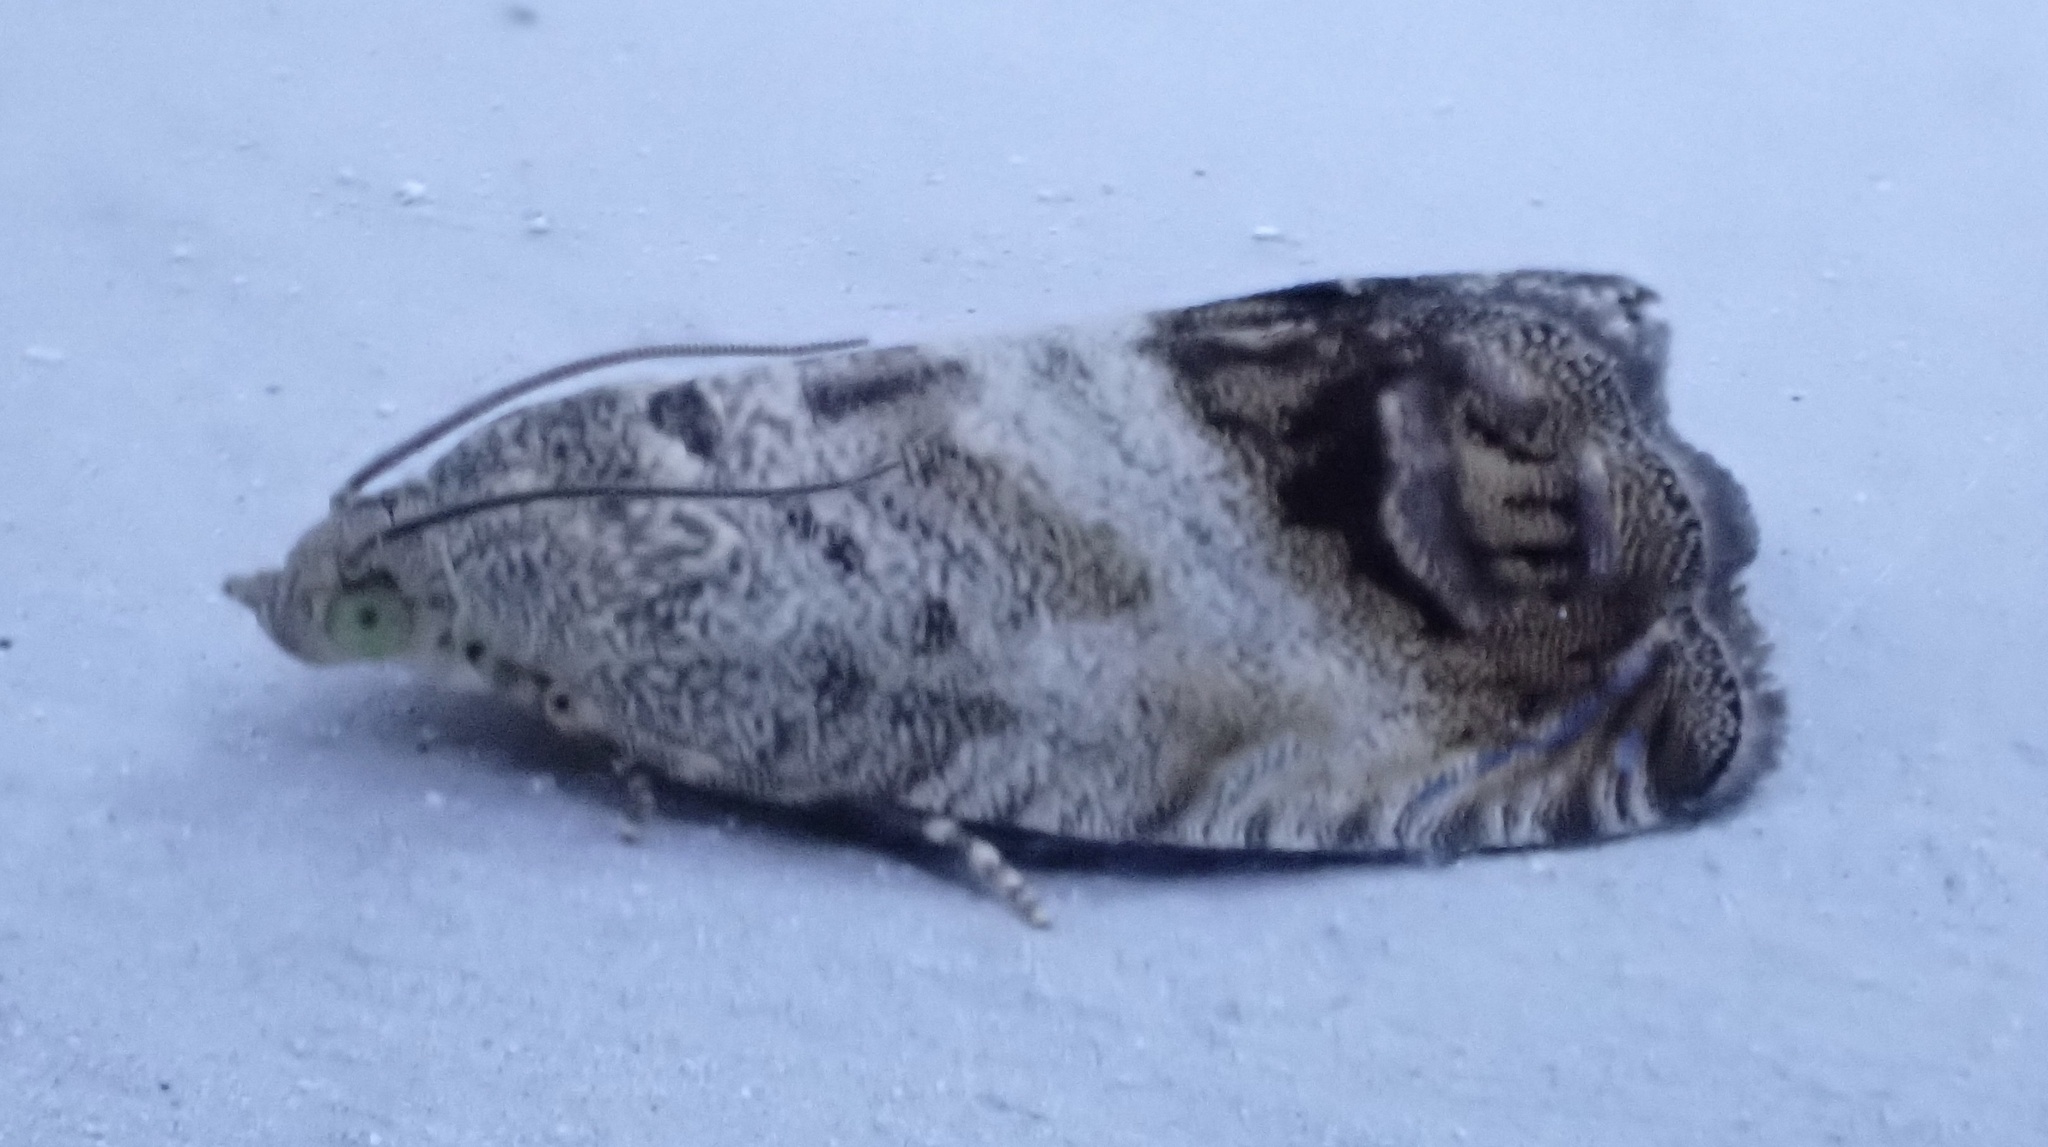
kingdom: Animalia
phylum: Arthropoda
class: Insecta
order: Lepidoptera
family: Tortricidae
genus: Cydia
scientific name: Cydia splendana
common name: De: kastanienwickler, eichenwickler es: oruga de la castaña fr: carpocapse des châtaignes it: cidia o tortrice tardiva delle castagne pt: bichado das castanhas gb: acorn moth, chestnut fruit tortrix
